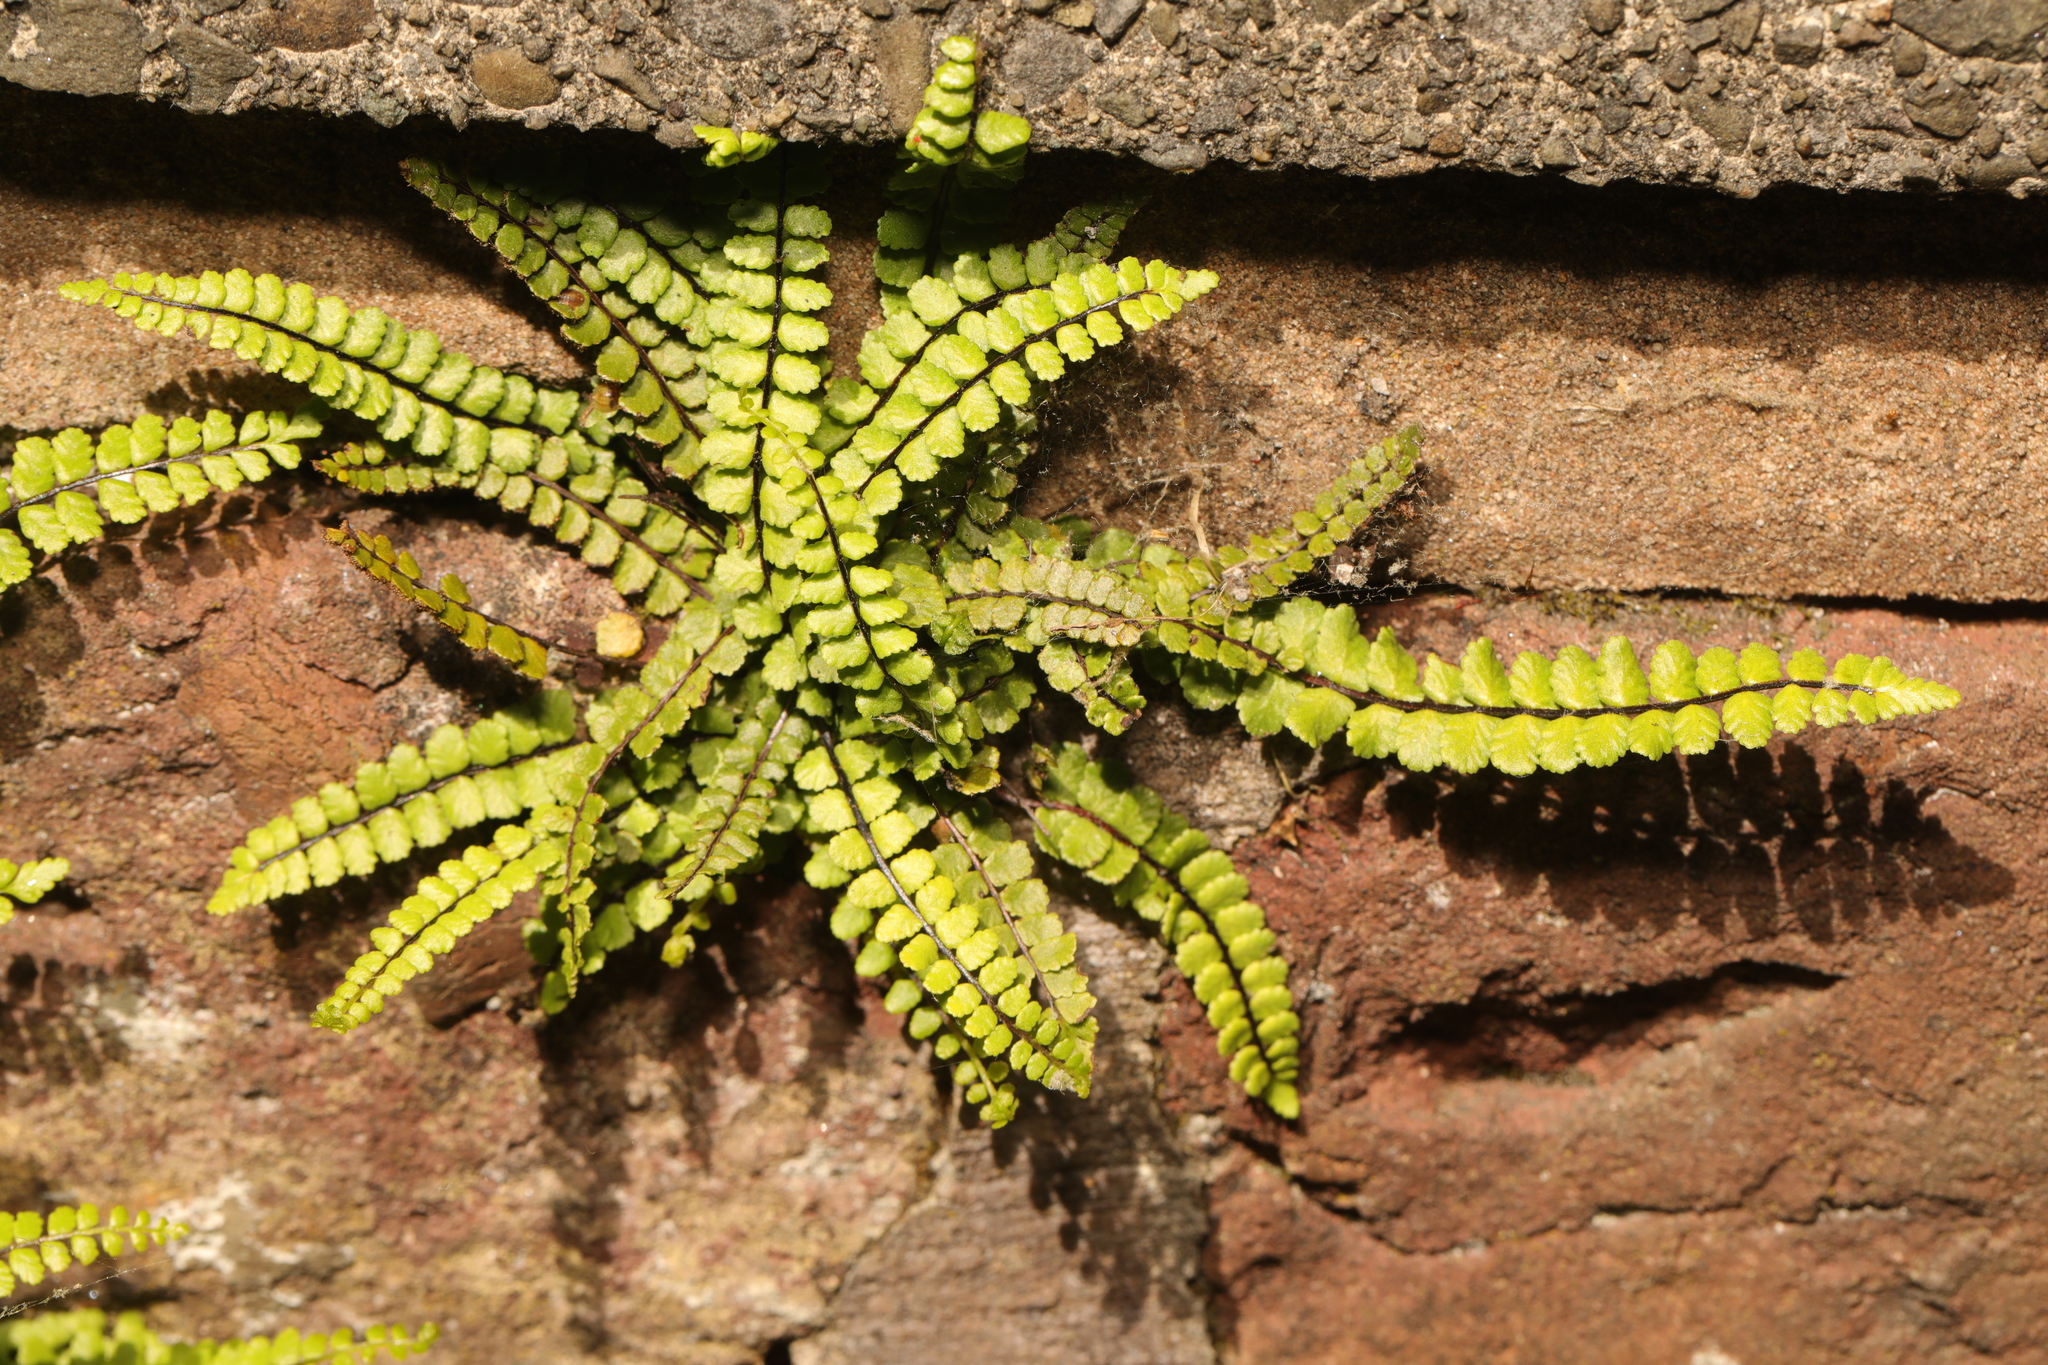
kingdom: Plantae
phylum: Tracheophyta
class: Polypodiopsida
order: Polypodiales
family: Aspleniaceae
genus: Asplenium
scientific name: Asplenium trichomanes
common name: Maidenhair spleenwort
